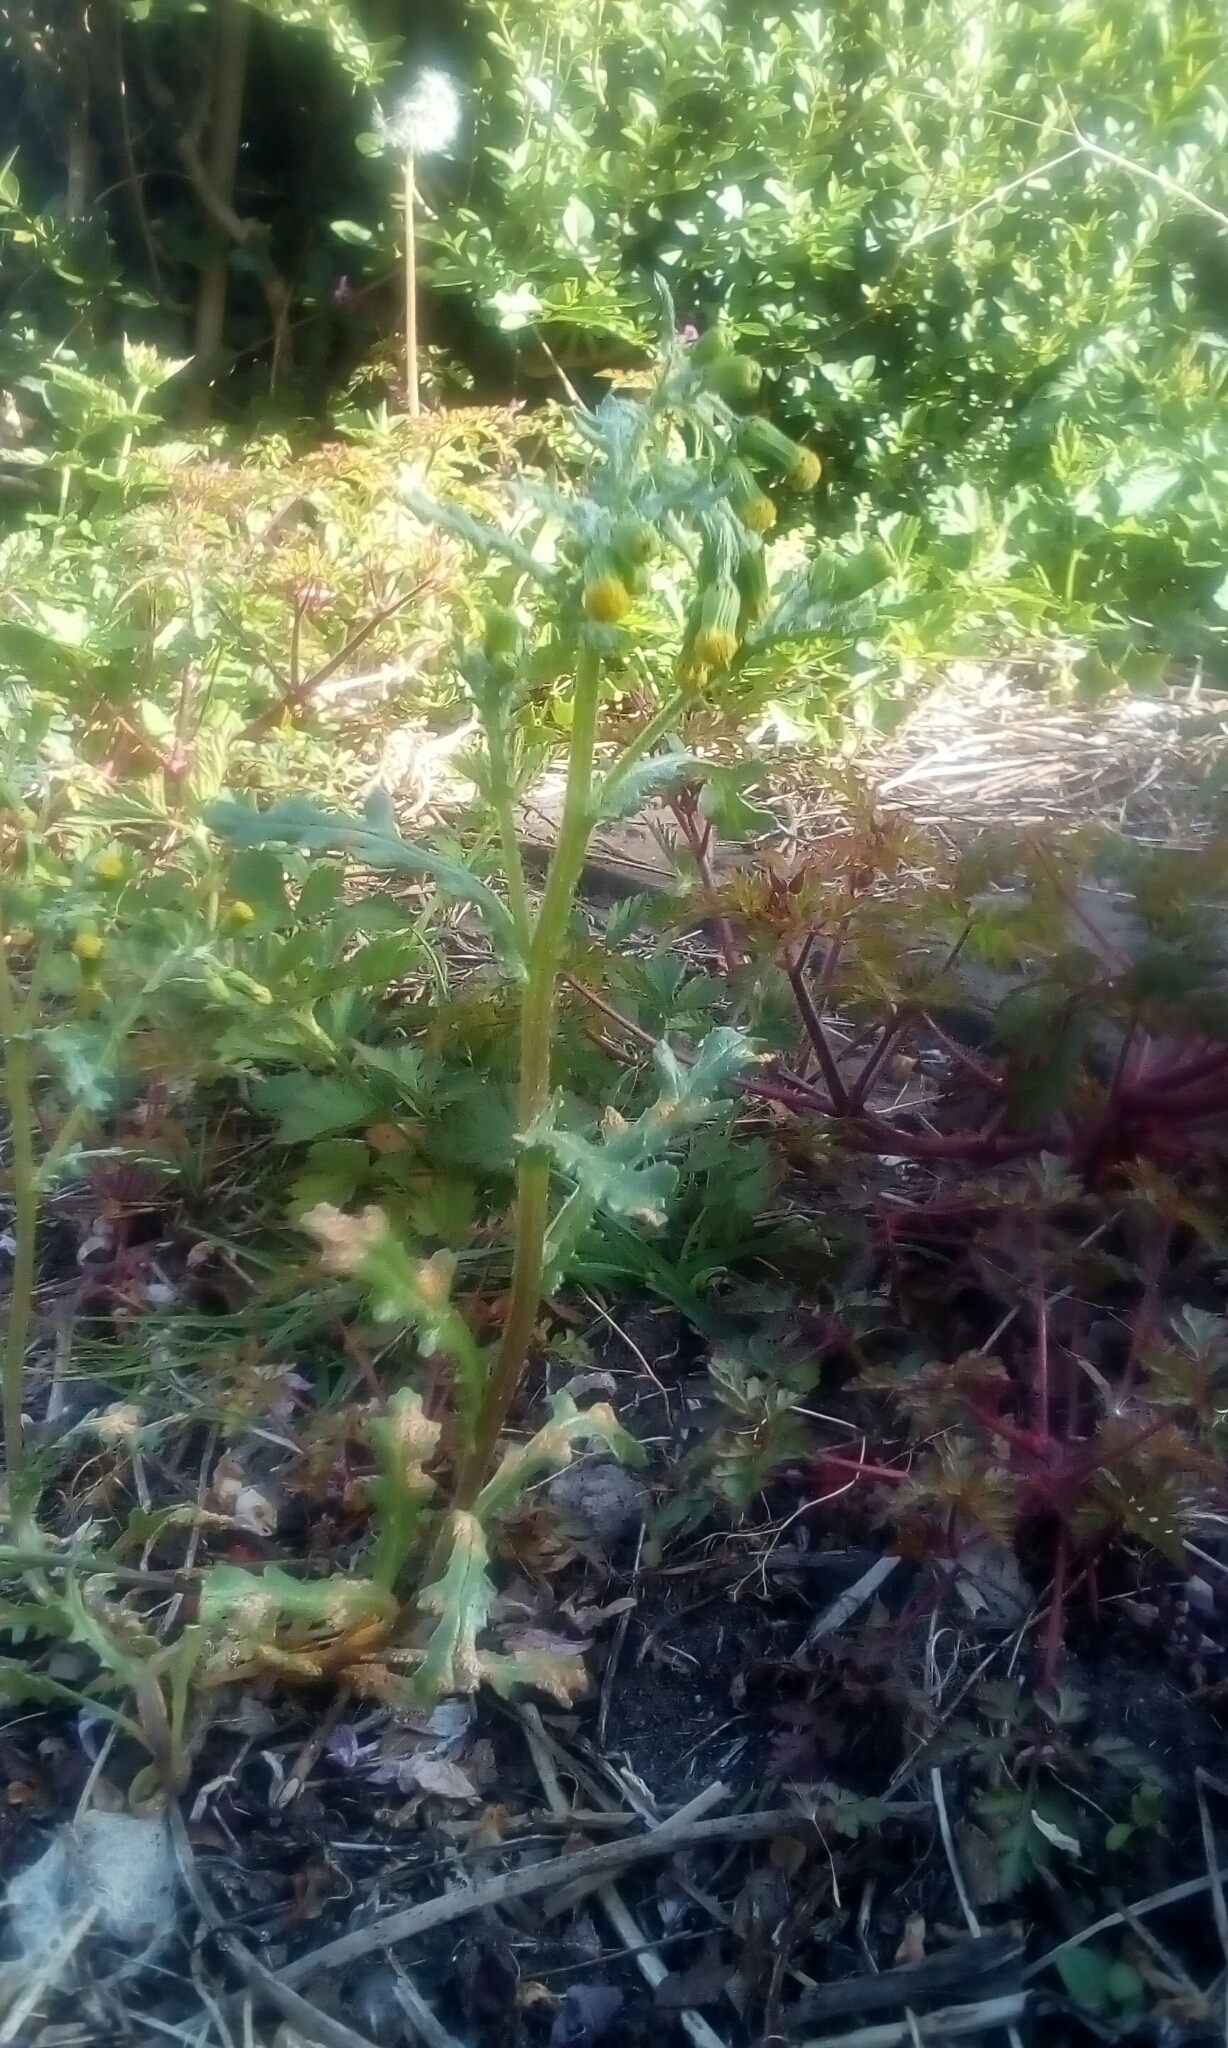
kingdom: Plantae
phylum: Tracheophyta
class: Magnoliopsida
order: Asterales
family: Asteraceae
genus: Senecio
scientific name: Senecio vulgaris
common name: Old-man-in-the-spring
